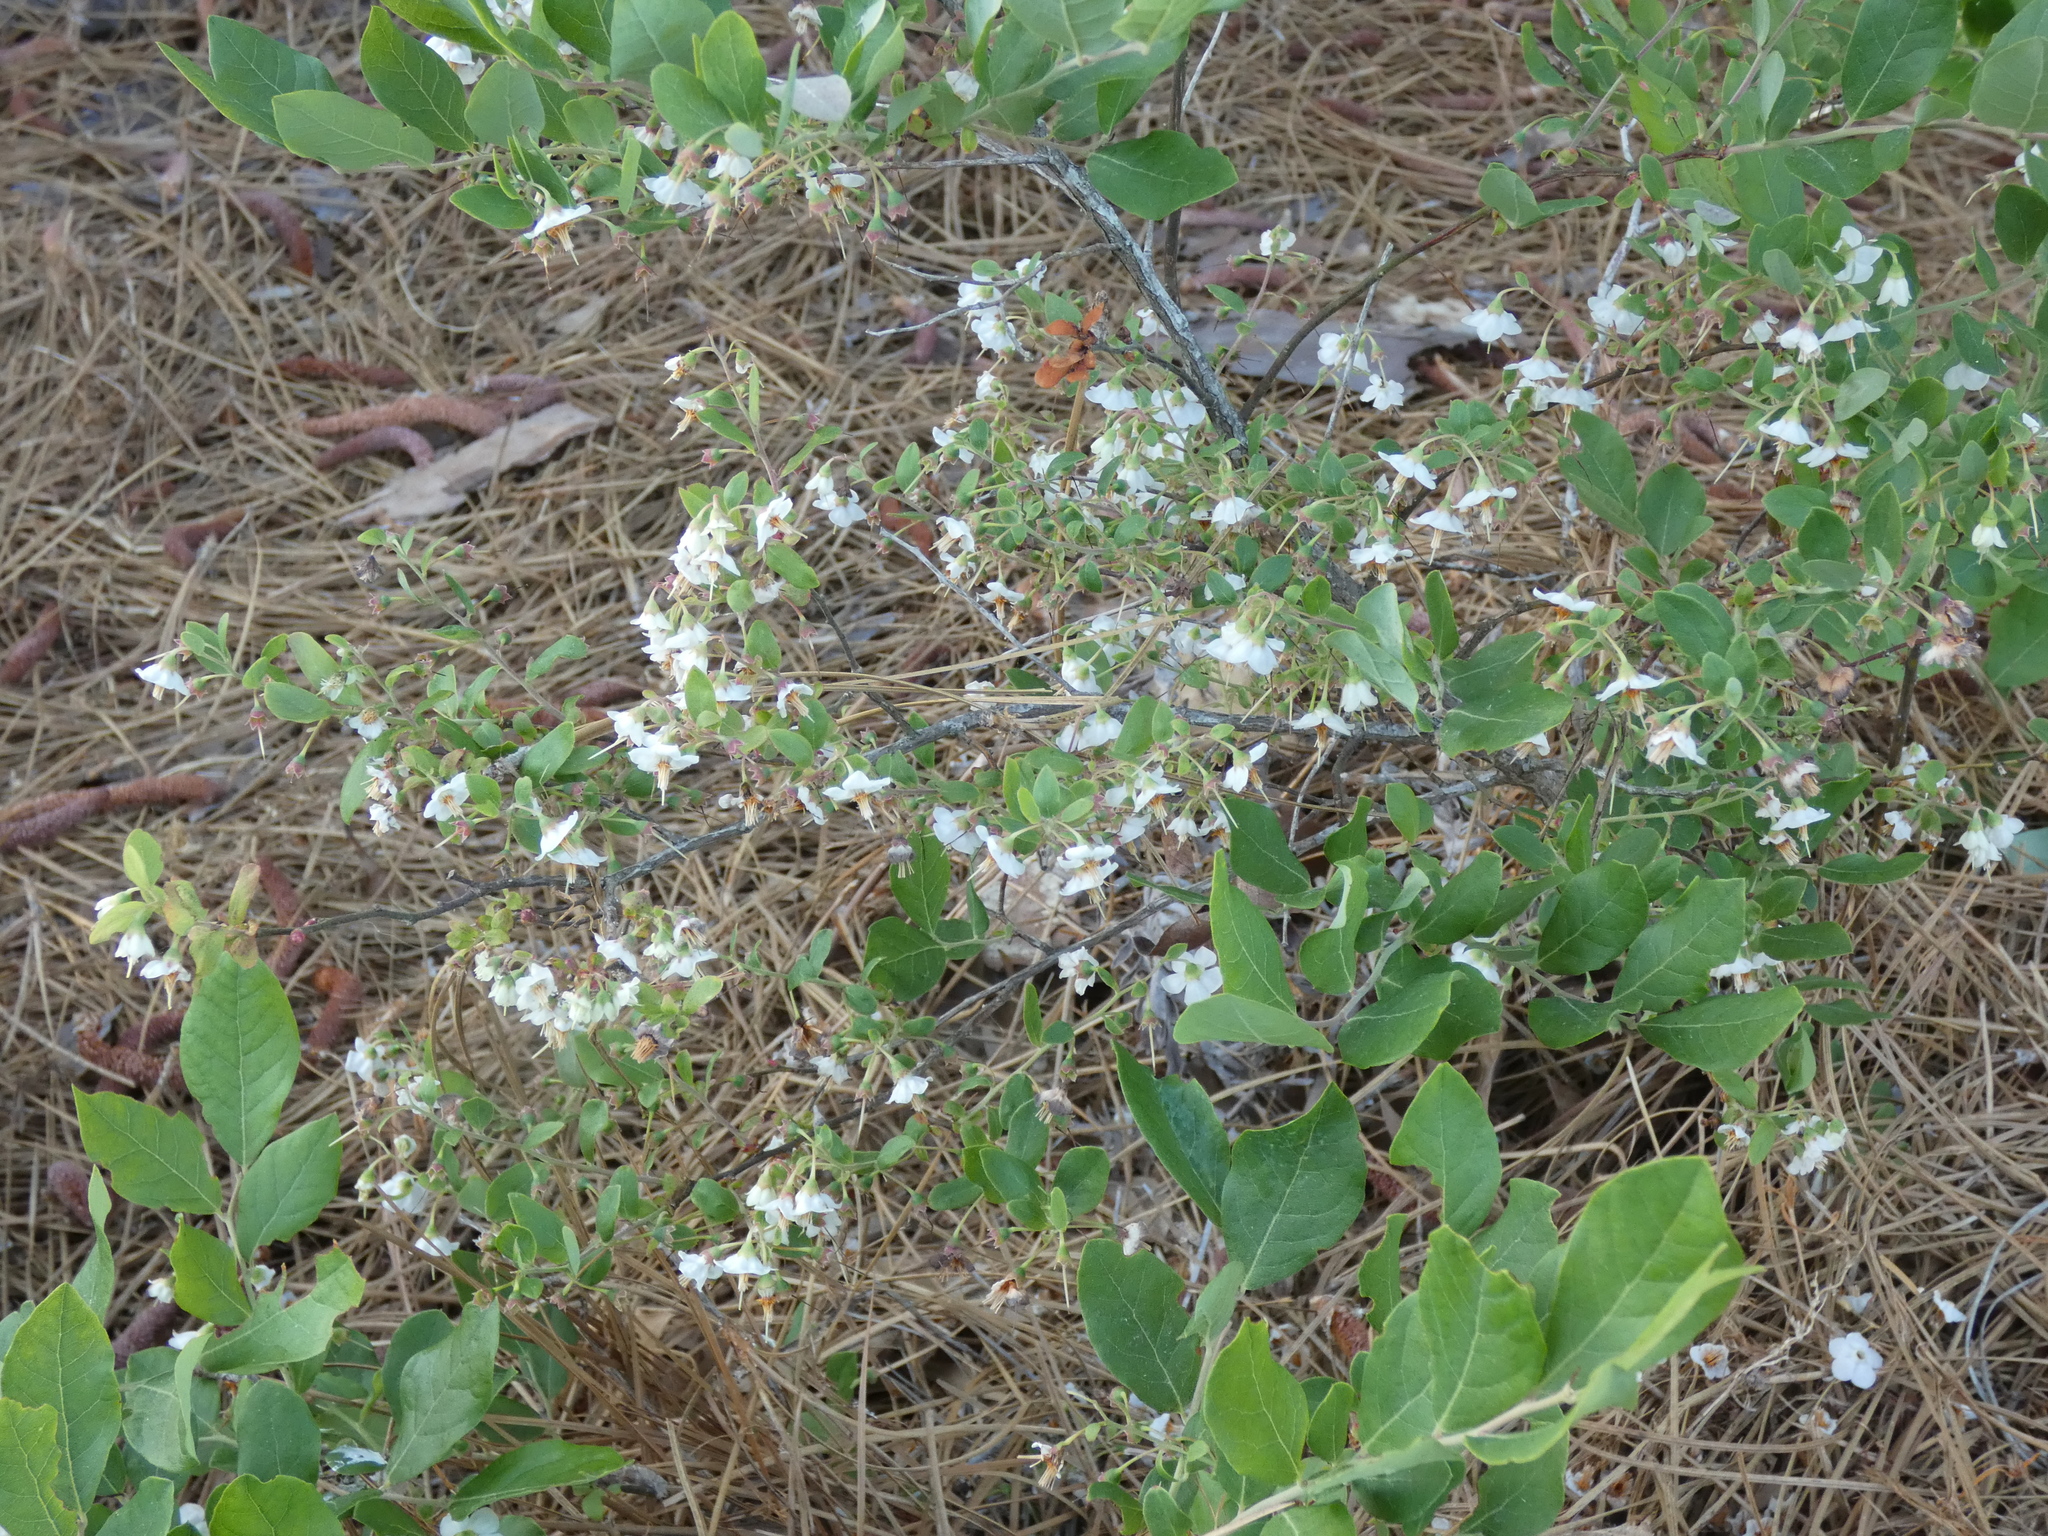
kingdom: Plantae
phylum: Tracheophyta
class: Magnoliopsida
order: Ericales
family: Ericaceae
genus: Vaccinium
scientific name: Vaccinium stamineum
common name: Deerberry
